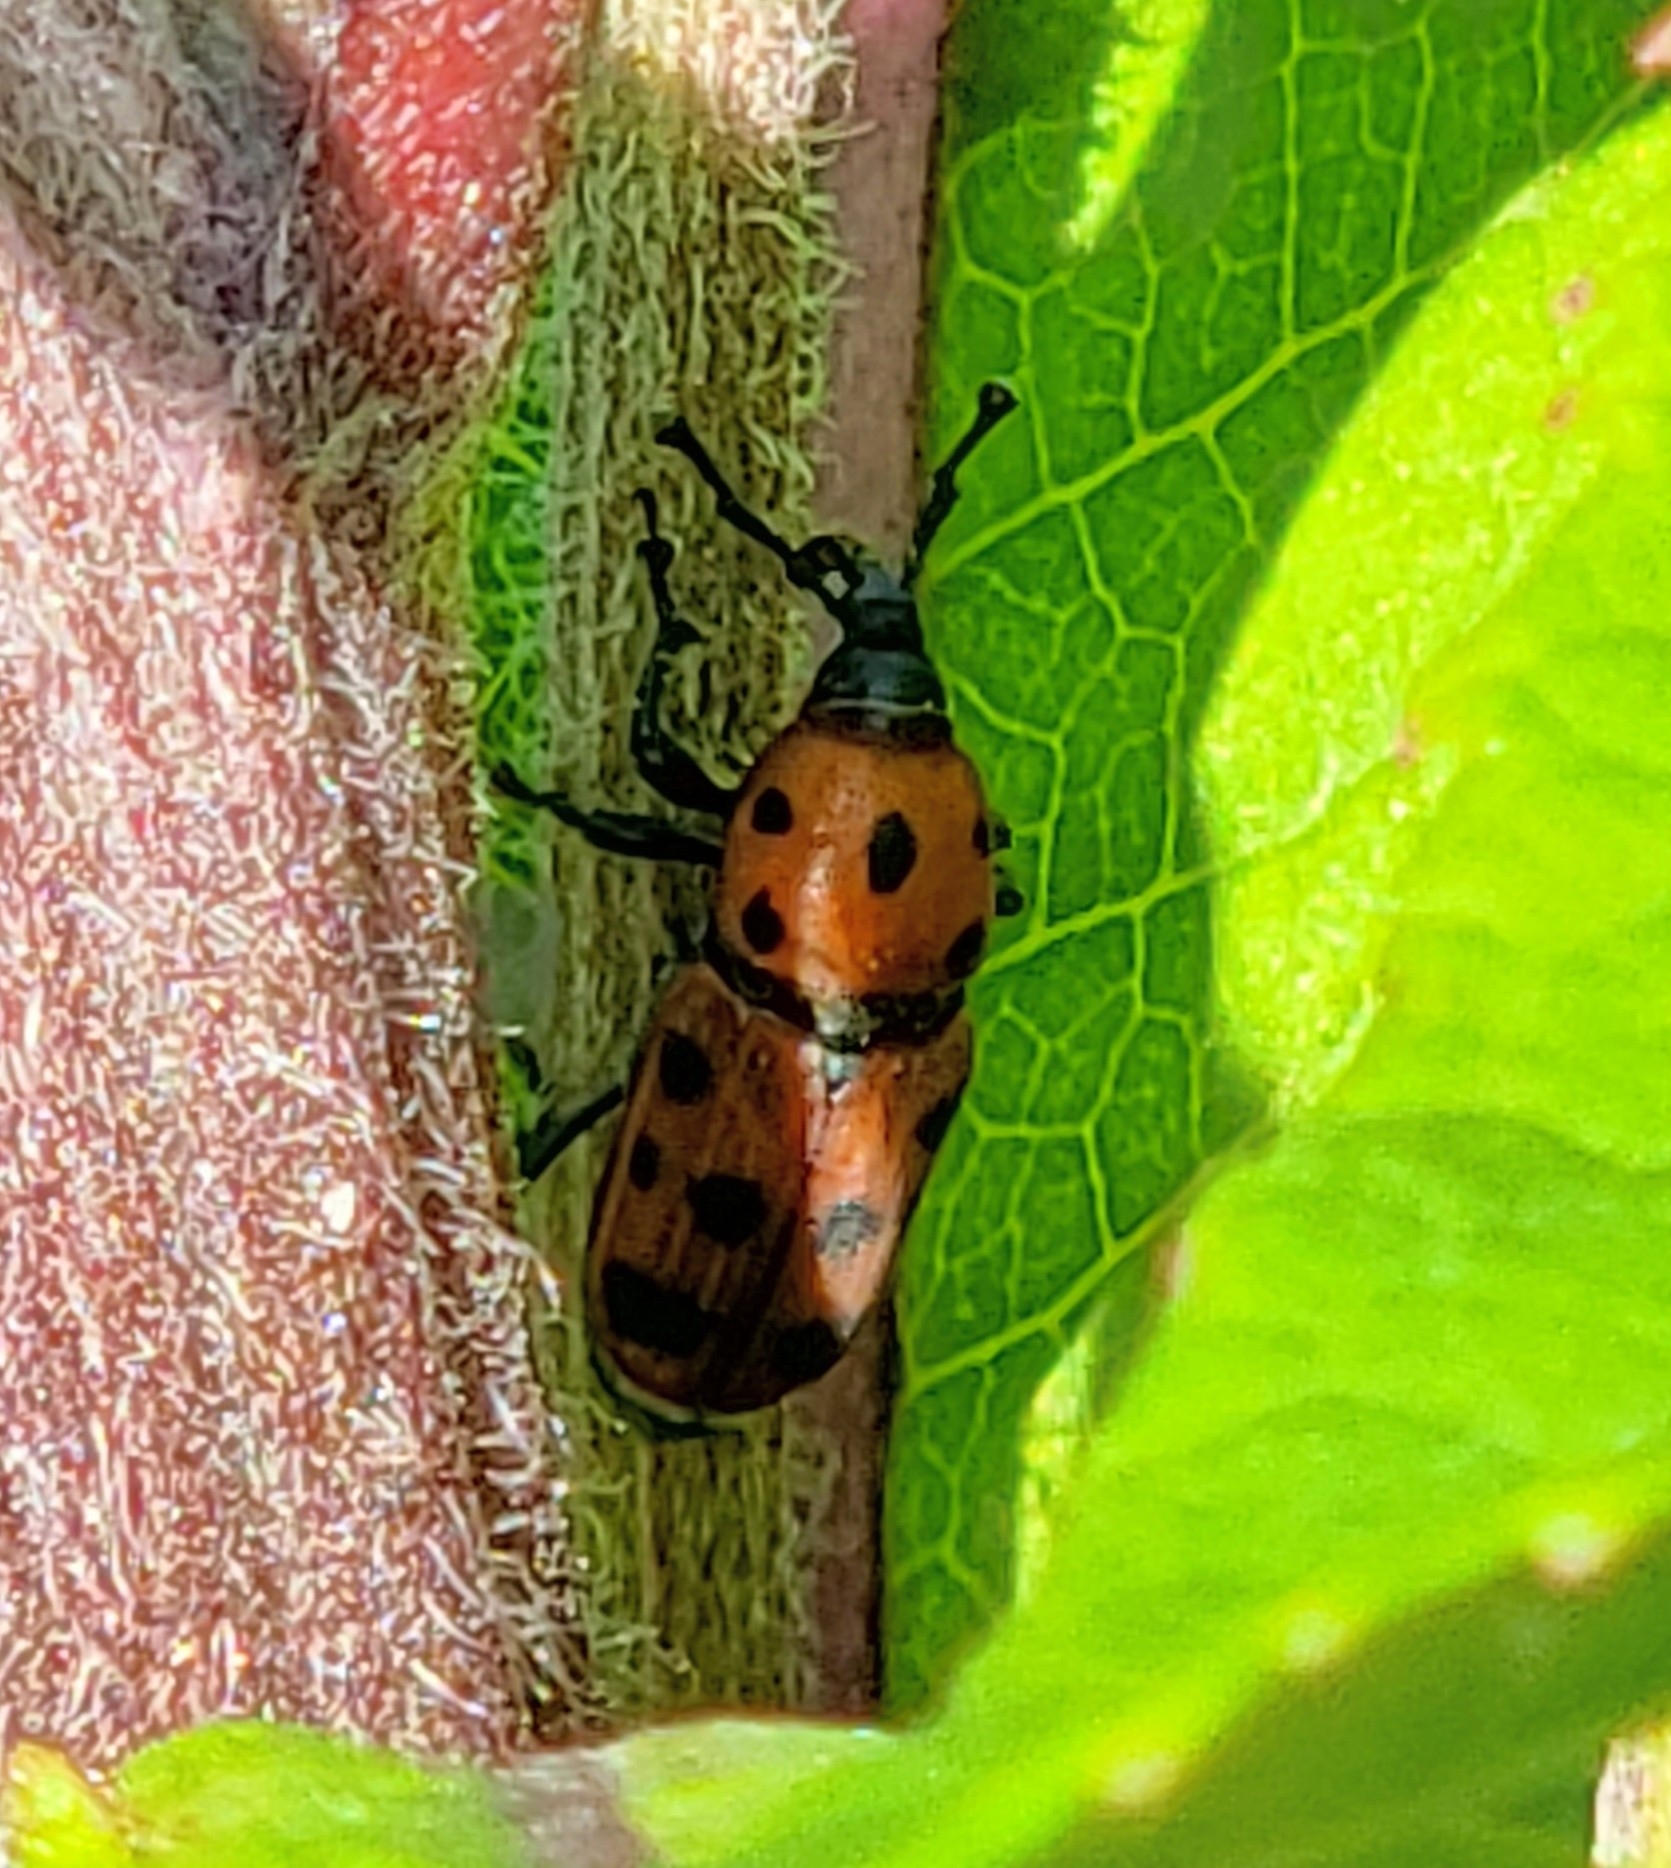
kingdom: Animalia
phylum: Arthropoda
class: Insecta
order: Coleoptera
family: Dryophthoridae
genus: Rhodobaenus
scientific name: Rhodobaenus tredecimpunctatus
